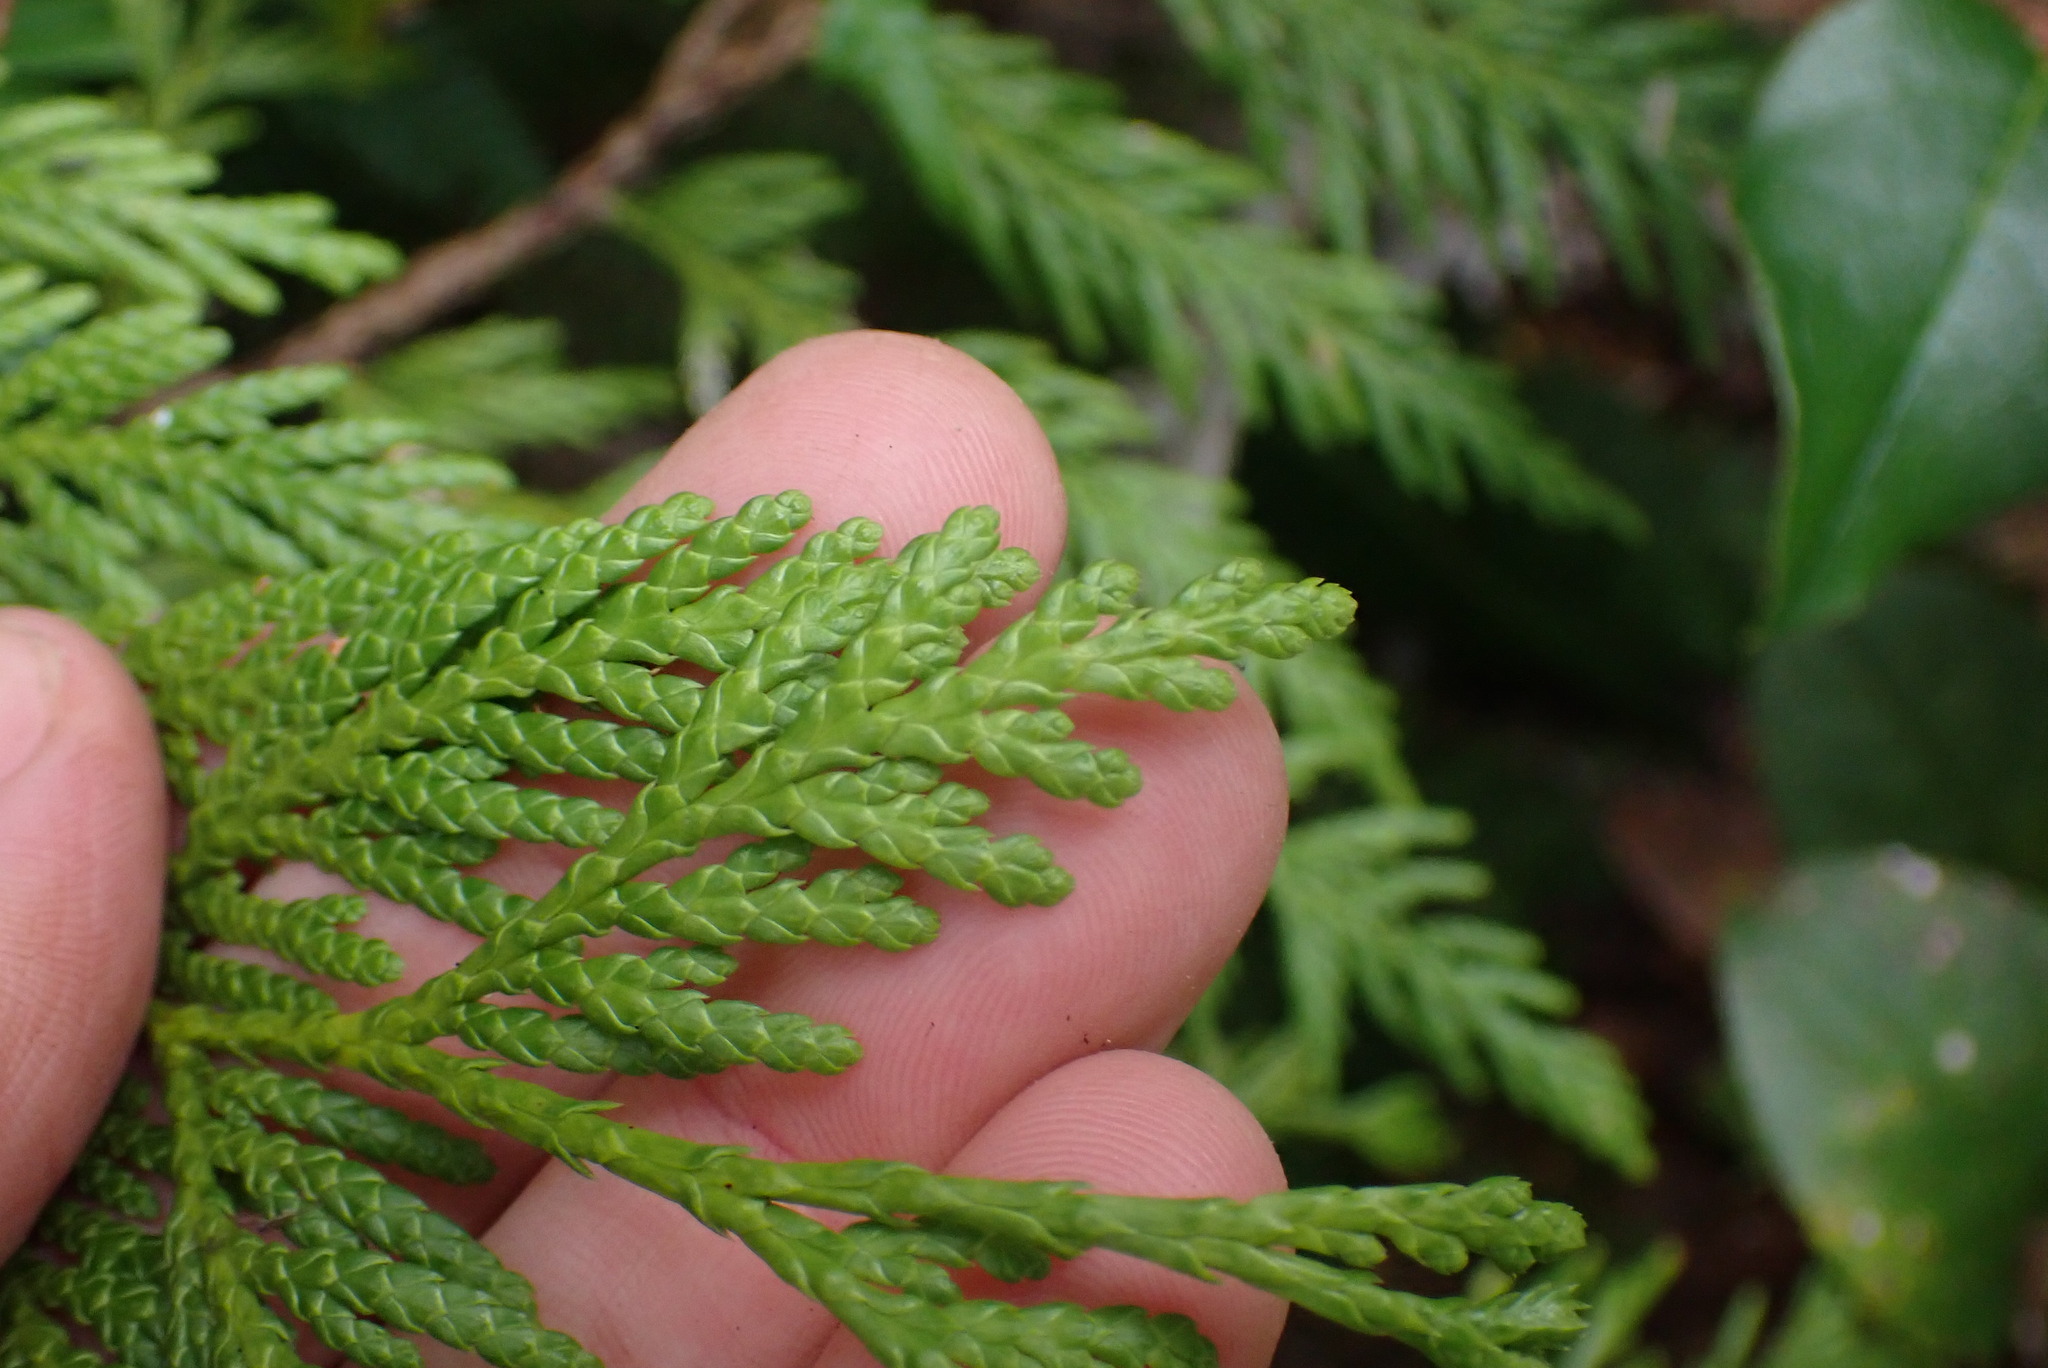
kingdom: Plantae
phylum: Tracheophyta
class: Pinopsida
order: Pinales
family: Cupressaceae
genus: Thuja
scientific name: Thuja plicata
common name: Western red-cedar
